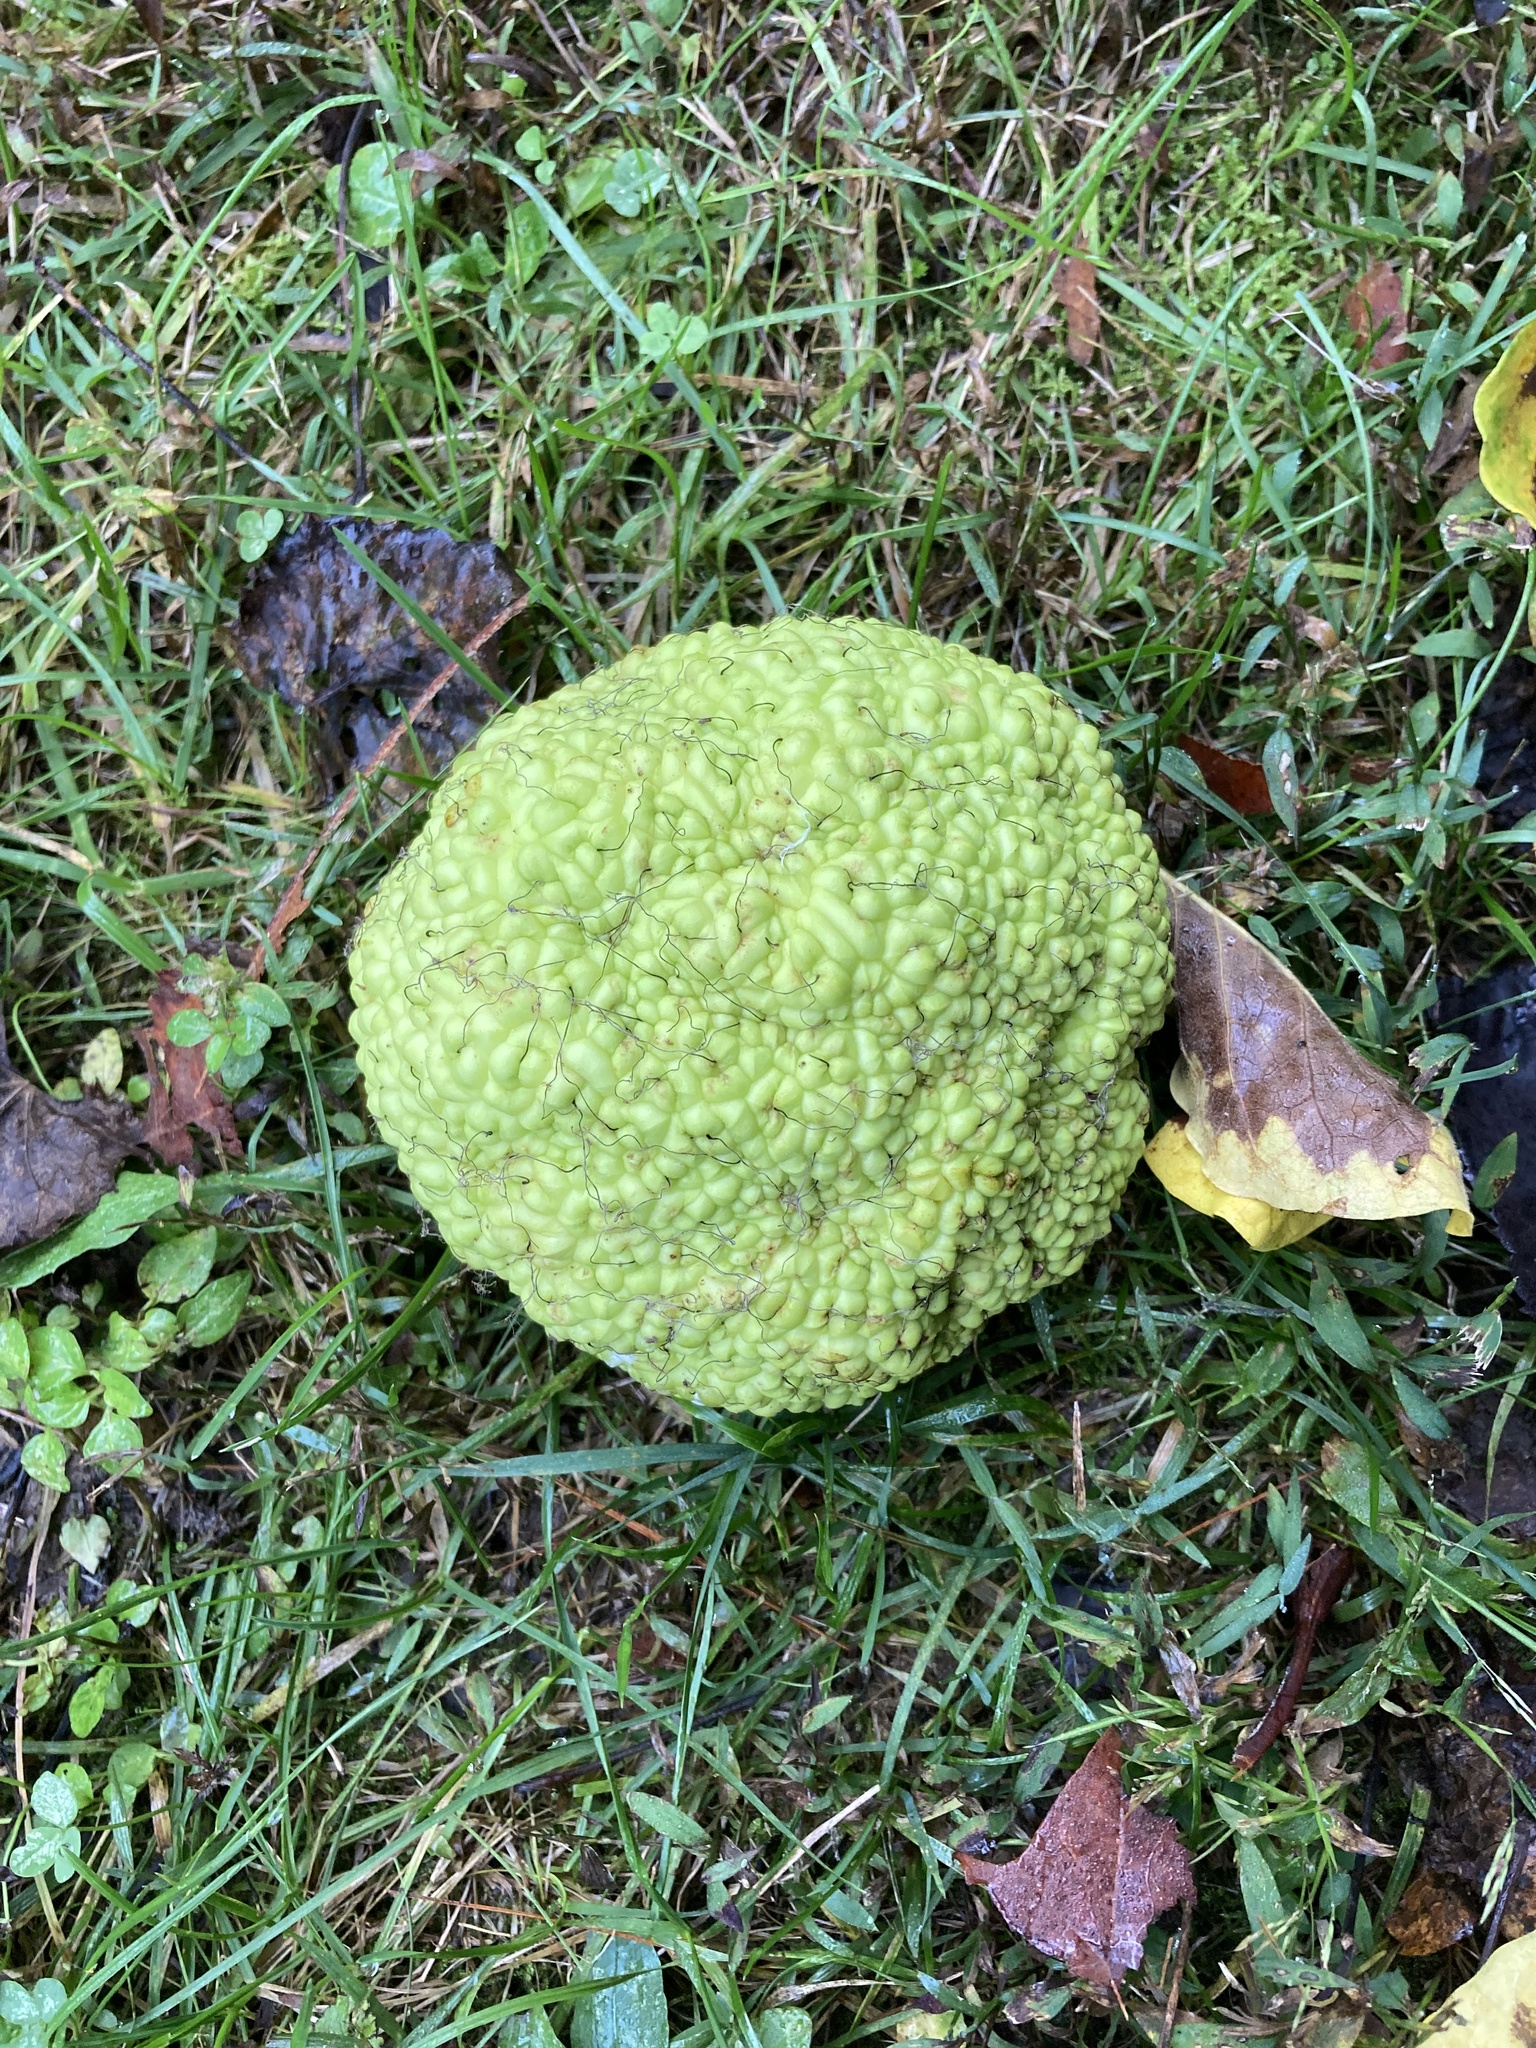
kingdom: Plantae
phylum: Tracheophyta
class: Magnoliopsida
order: Rosales
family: Moraceae
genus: Maclura
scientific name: Maclura pomifera
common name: Osage-orange
